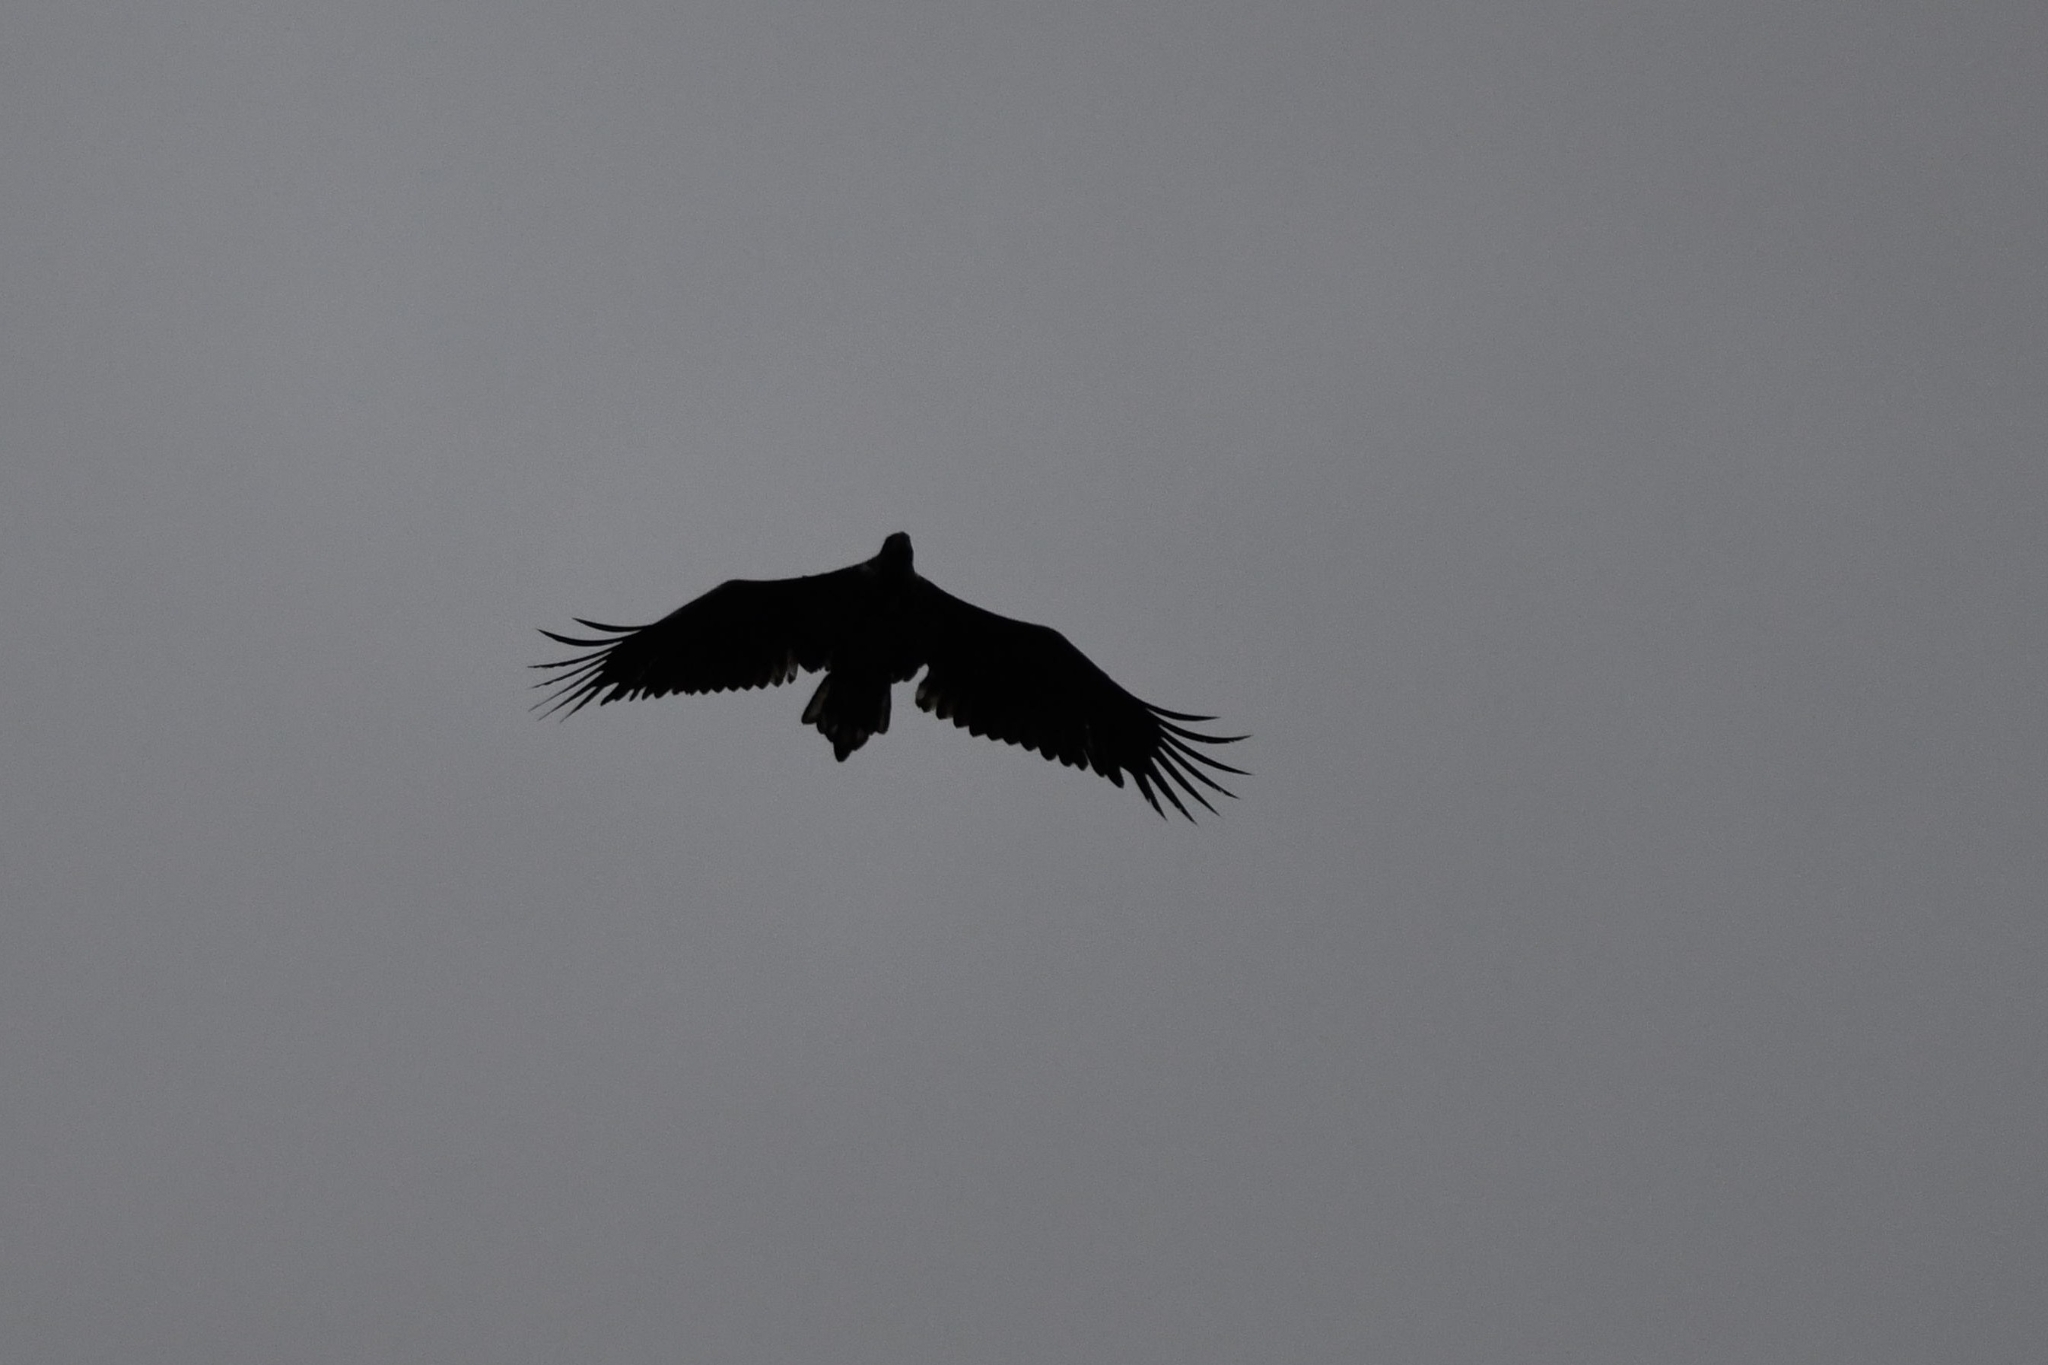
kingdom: Animalia
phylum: Chordata
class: Aves
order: Accipitriformes
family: Accipitridae
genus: Haliaeetus
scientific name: Haliaeetus albicilla
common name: White-tailed eagle
